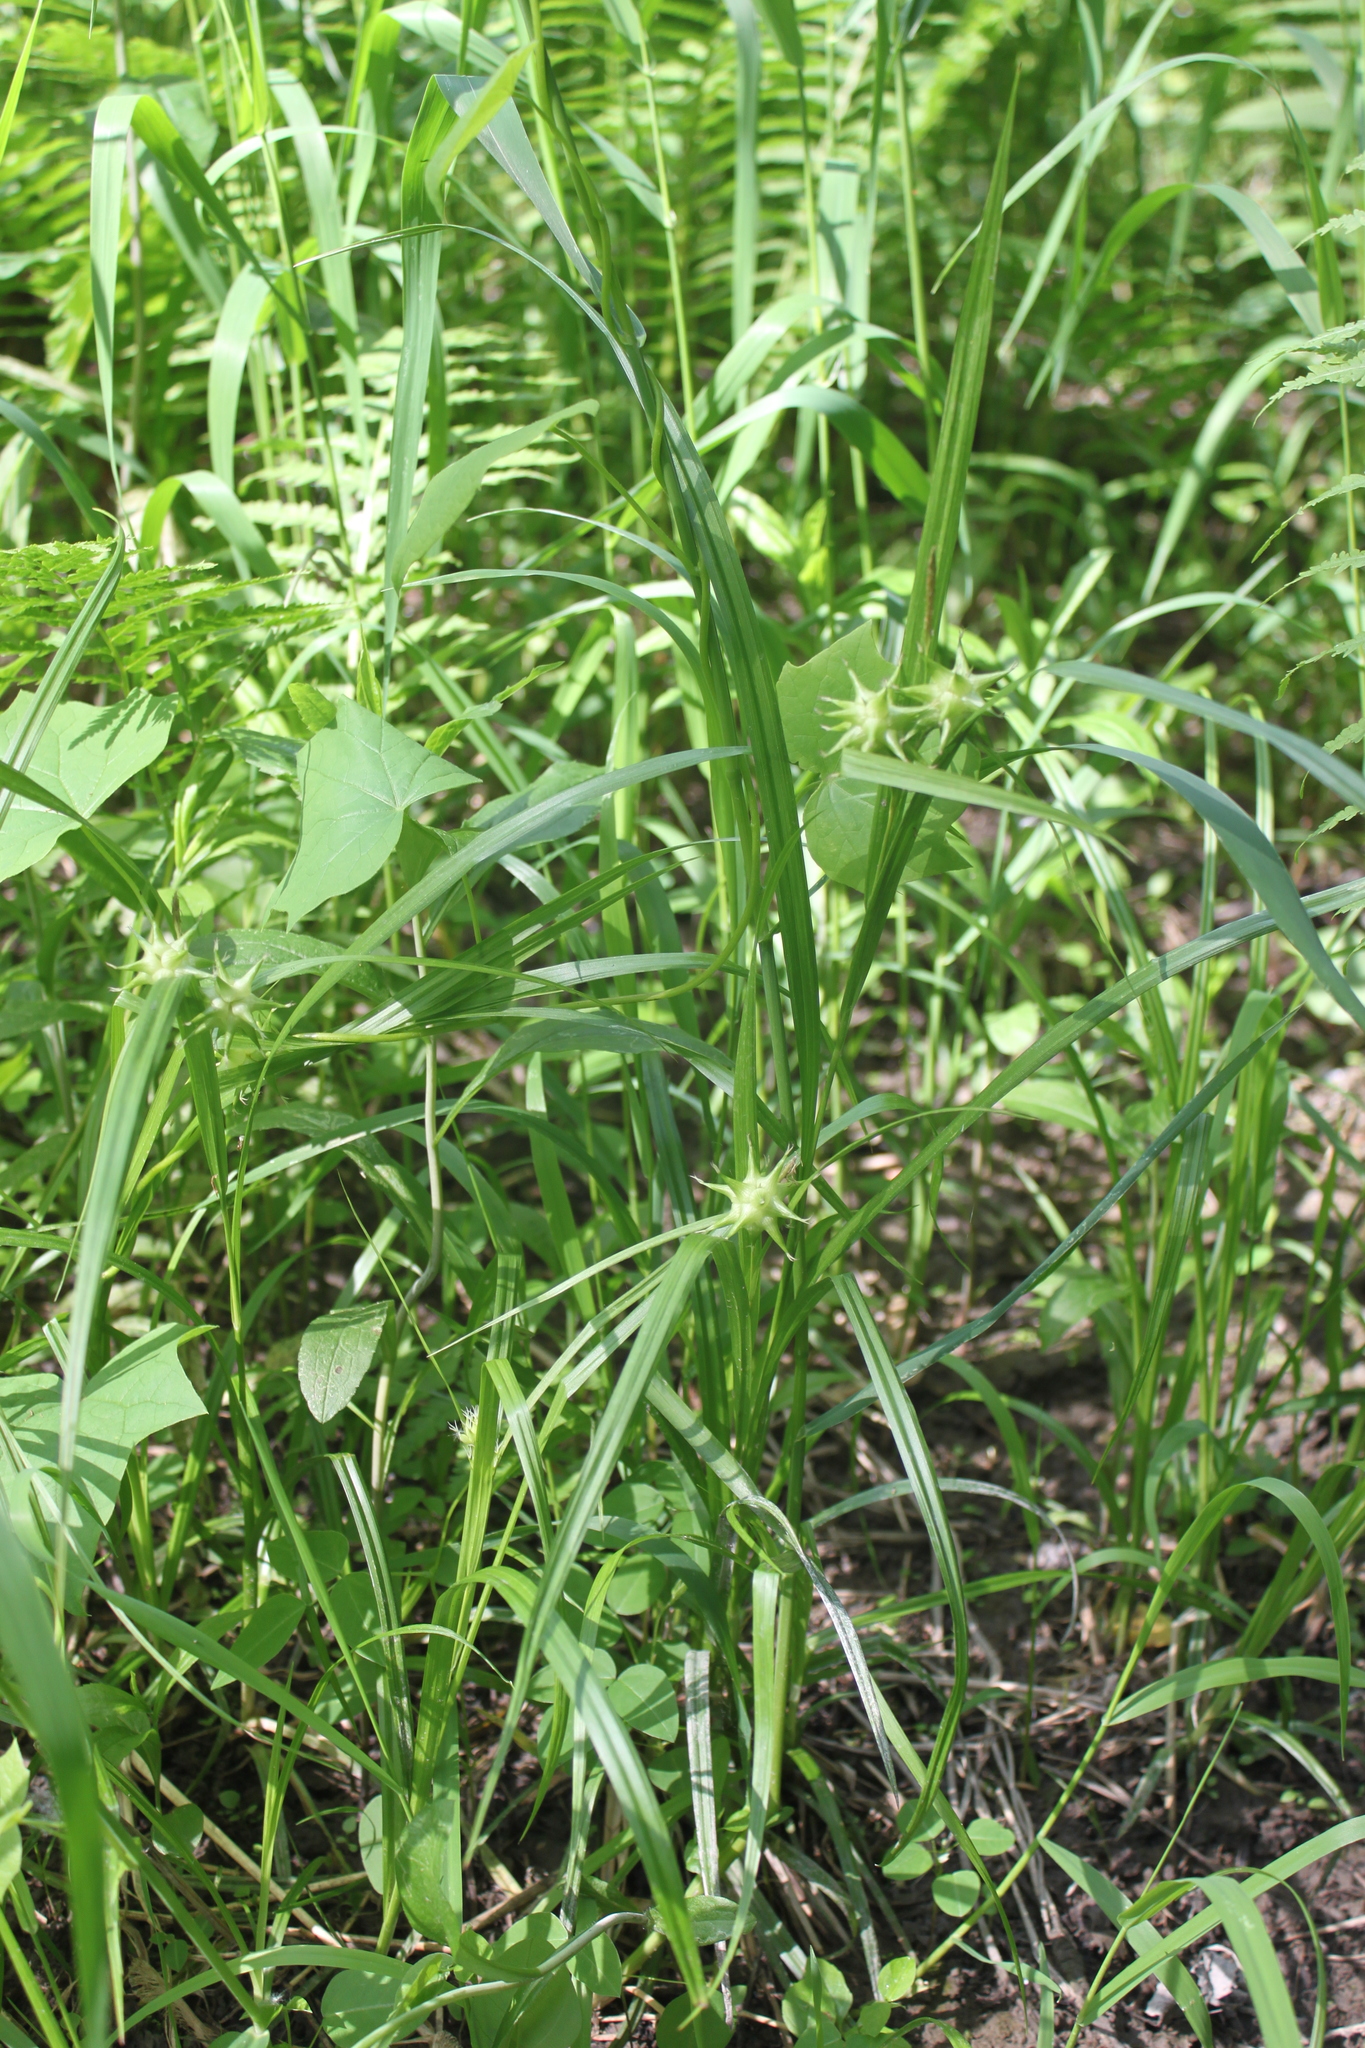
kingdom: Plantae
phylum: Tracheophyta
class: Liliopsida
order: Poales
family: Cyperaceae
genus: Carex
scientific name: Carex grayi
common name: Asa gray's sedge
